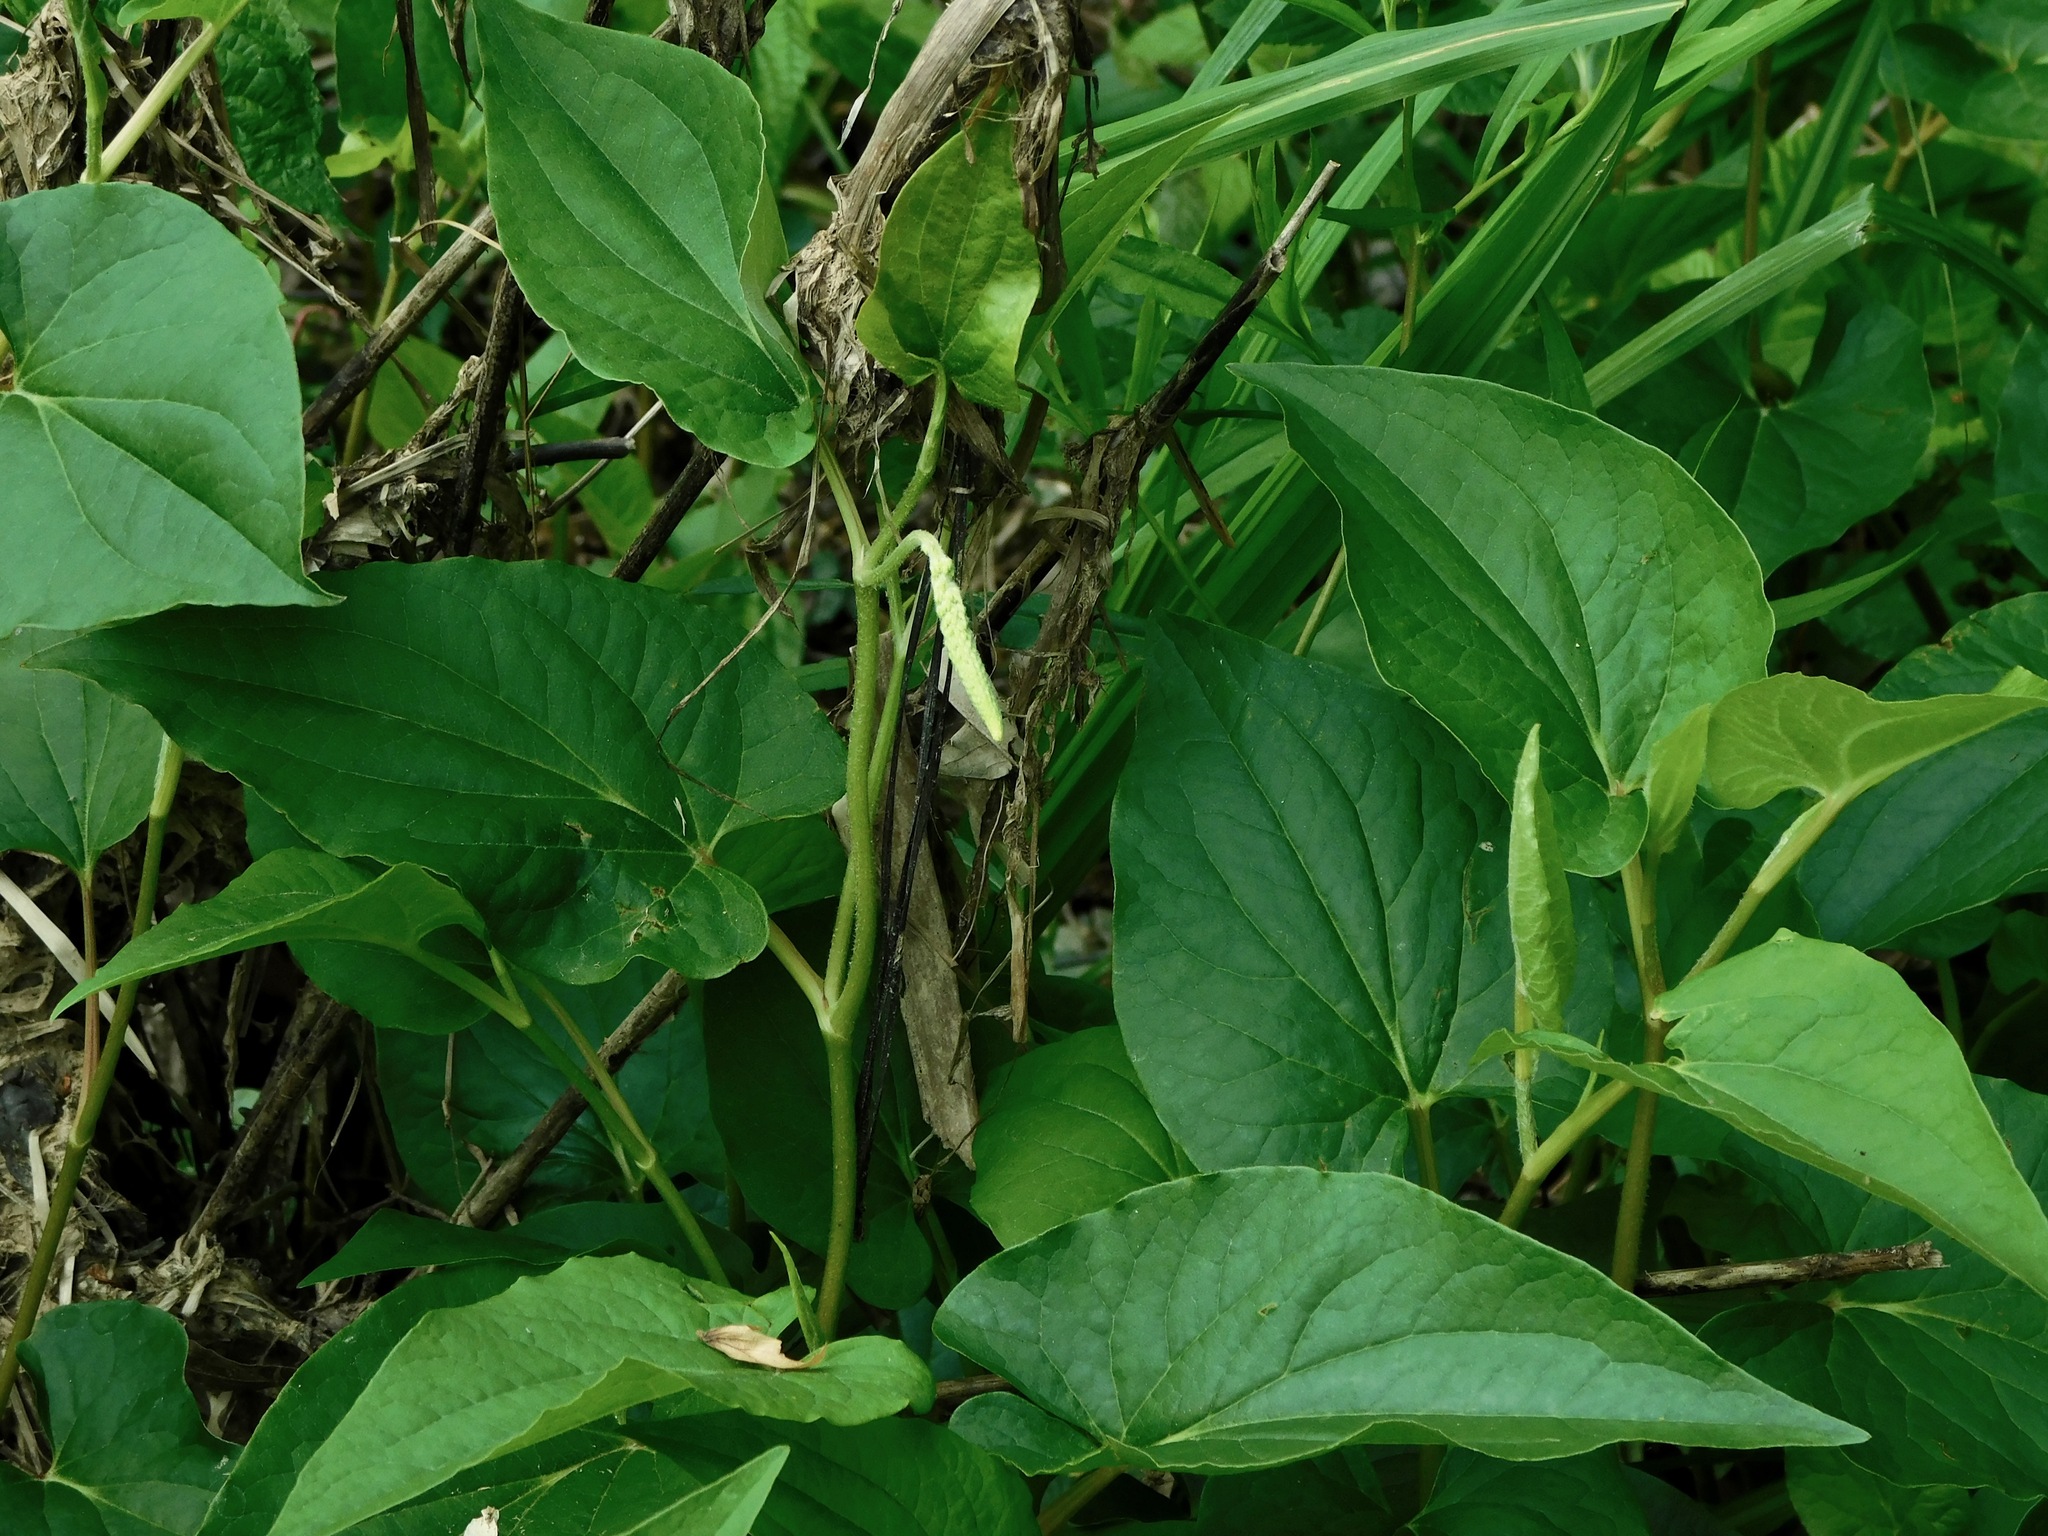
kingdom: Plantae
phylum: Tracheophyta
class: Magnoliopsida
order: Piperales
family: Saururaceae
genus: Saururus
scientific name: Saururus cernuus
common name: Lizard's-tail
